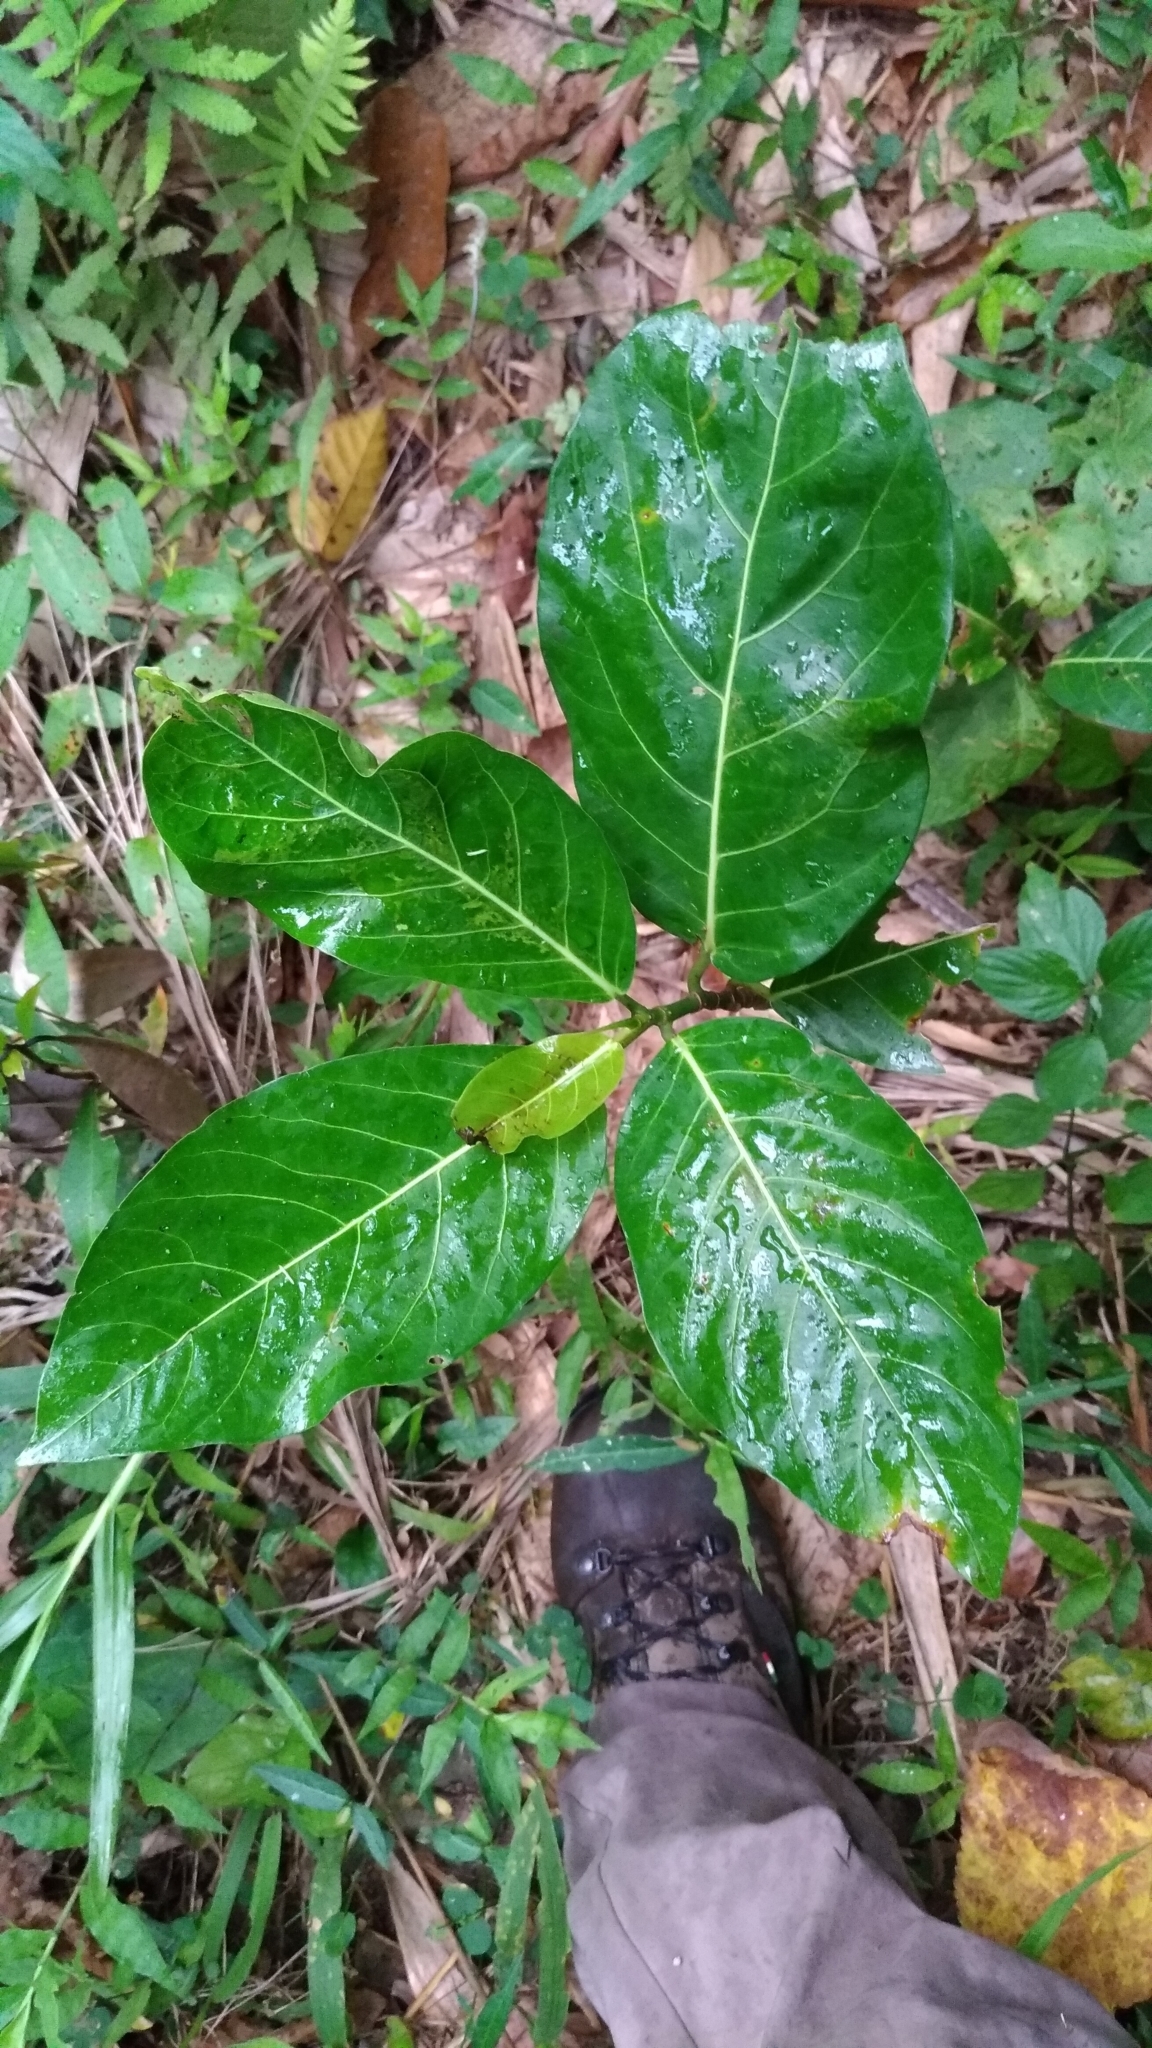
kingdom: Plantae
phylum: Tracheophyta
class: Magnoliopsida
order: Rosales
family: Moraceae
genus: Ficus
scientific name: Ficus septica
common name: Septic fig
